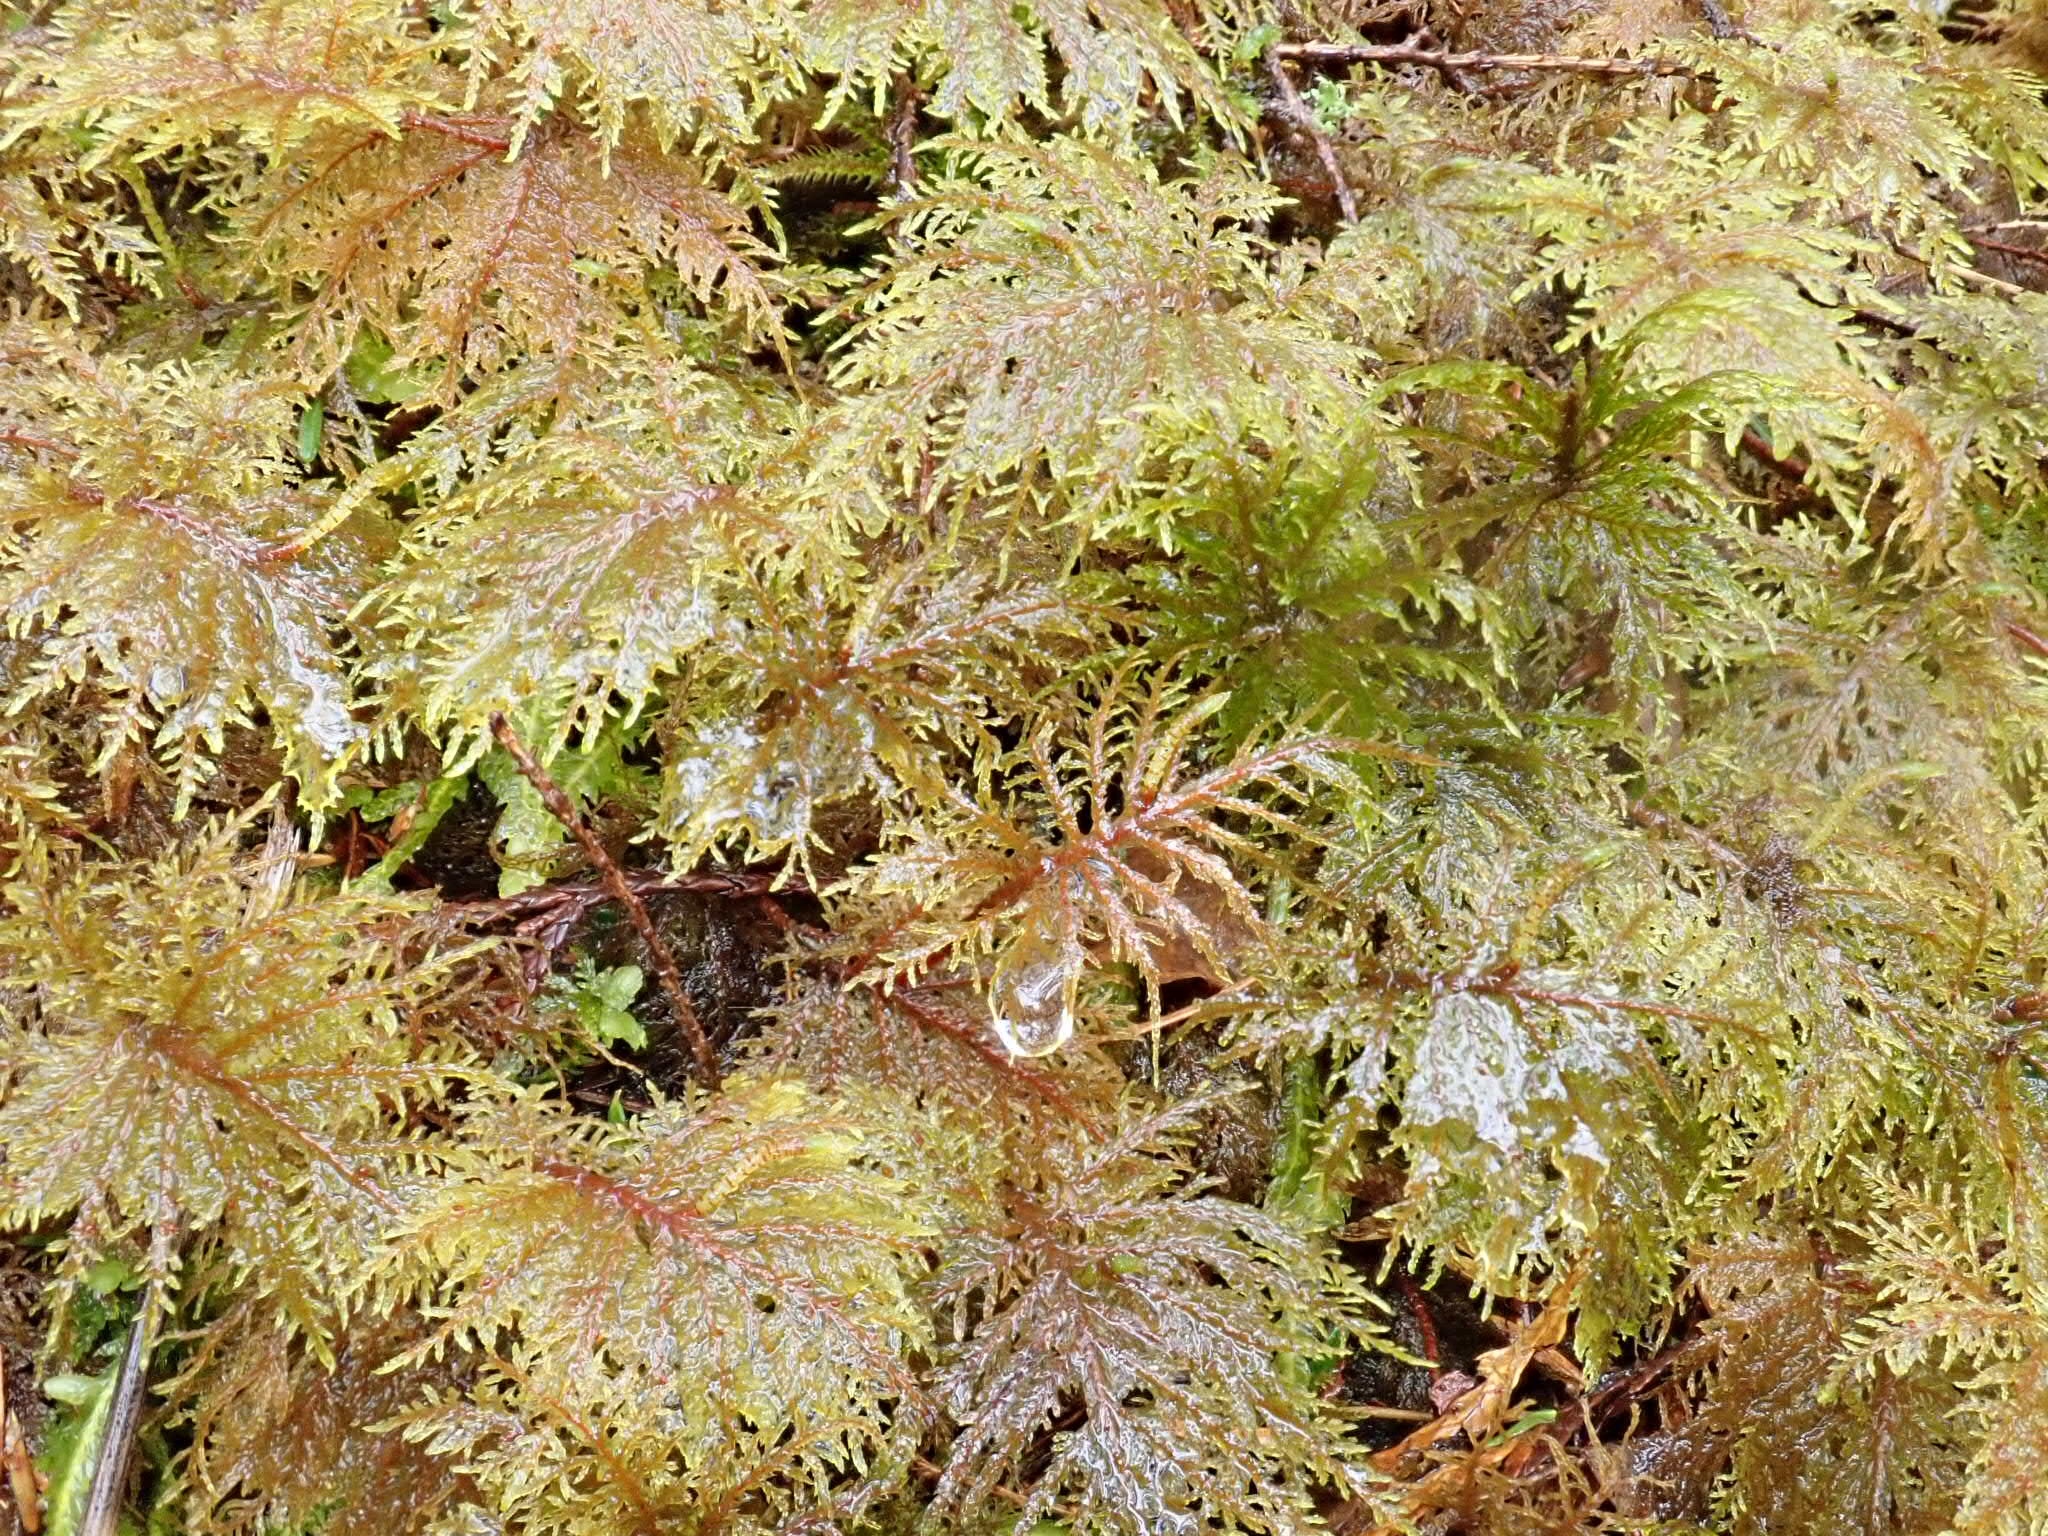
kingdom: Plantae
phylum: Bryophyta
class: Bryopsida
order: Hypnales
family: Hylocomiaceae
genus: Hylocomium
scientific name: Hylocomium splendens
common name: Stairstep moss
